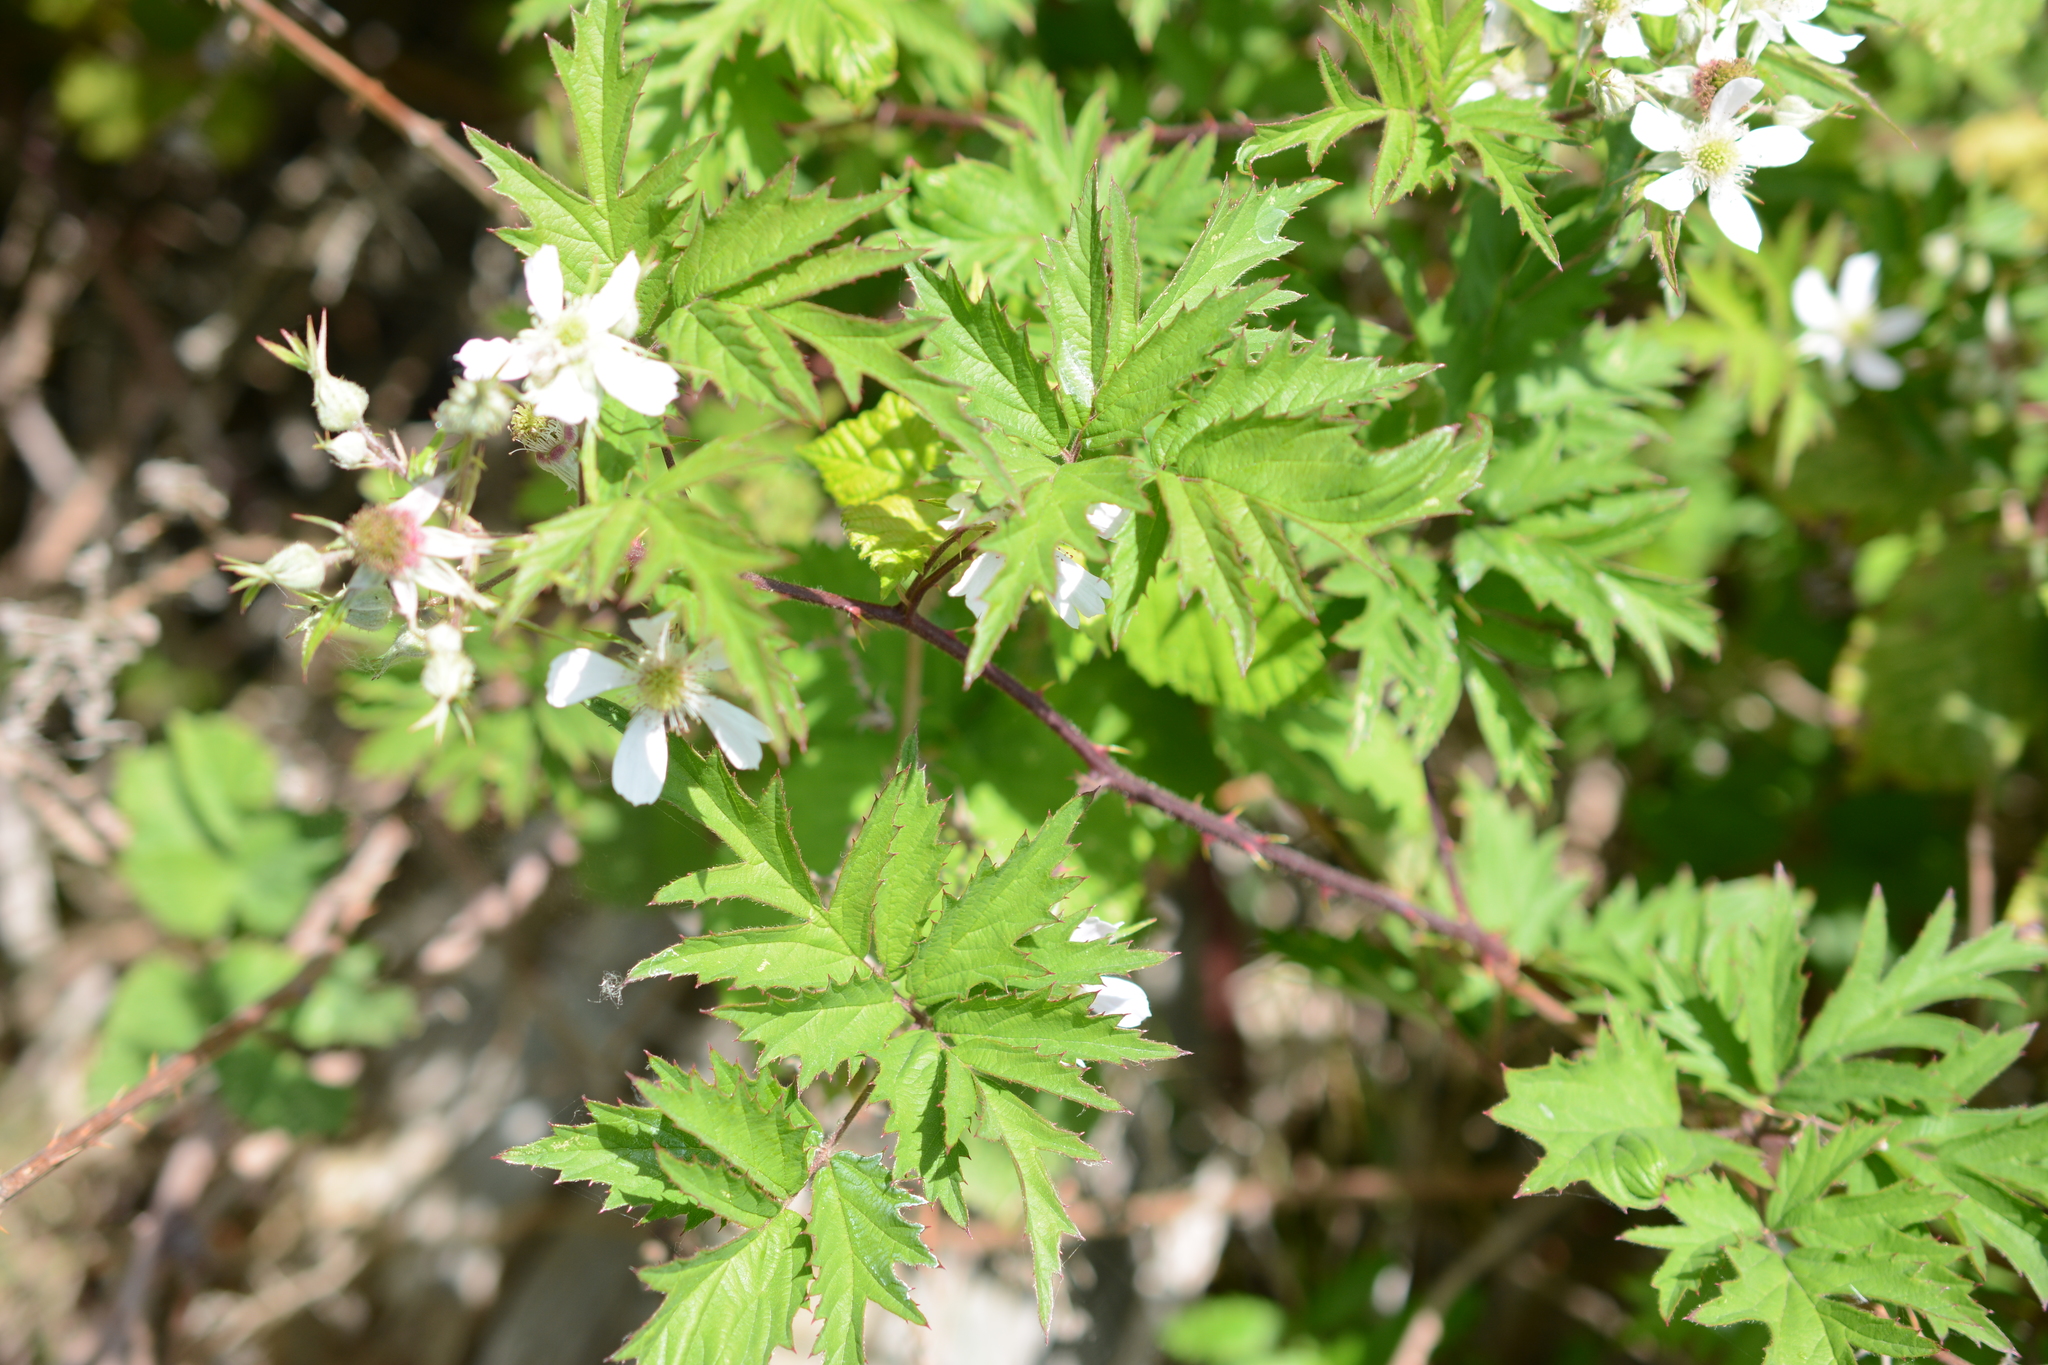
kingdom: Plantae
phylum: Tracheophyta
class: Magnoliopsida
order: Rosales
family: Rosaceae
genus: Rubus
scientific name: Rubus laciniatus
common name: Evergreen blackberry
